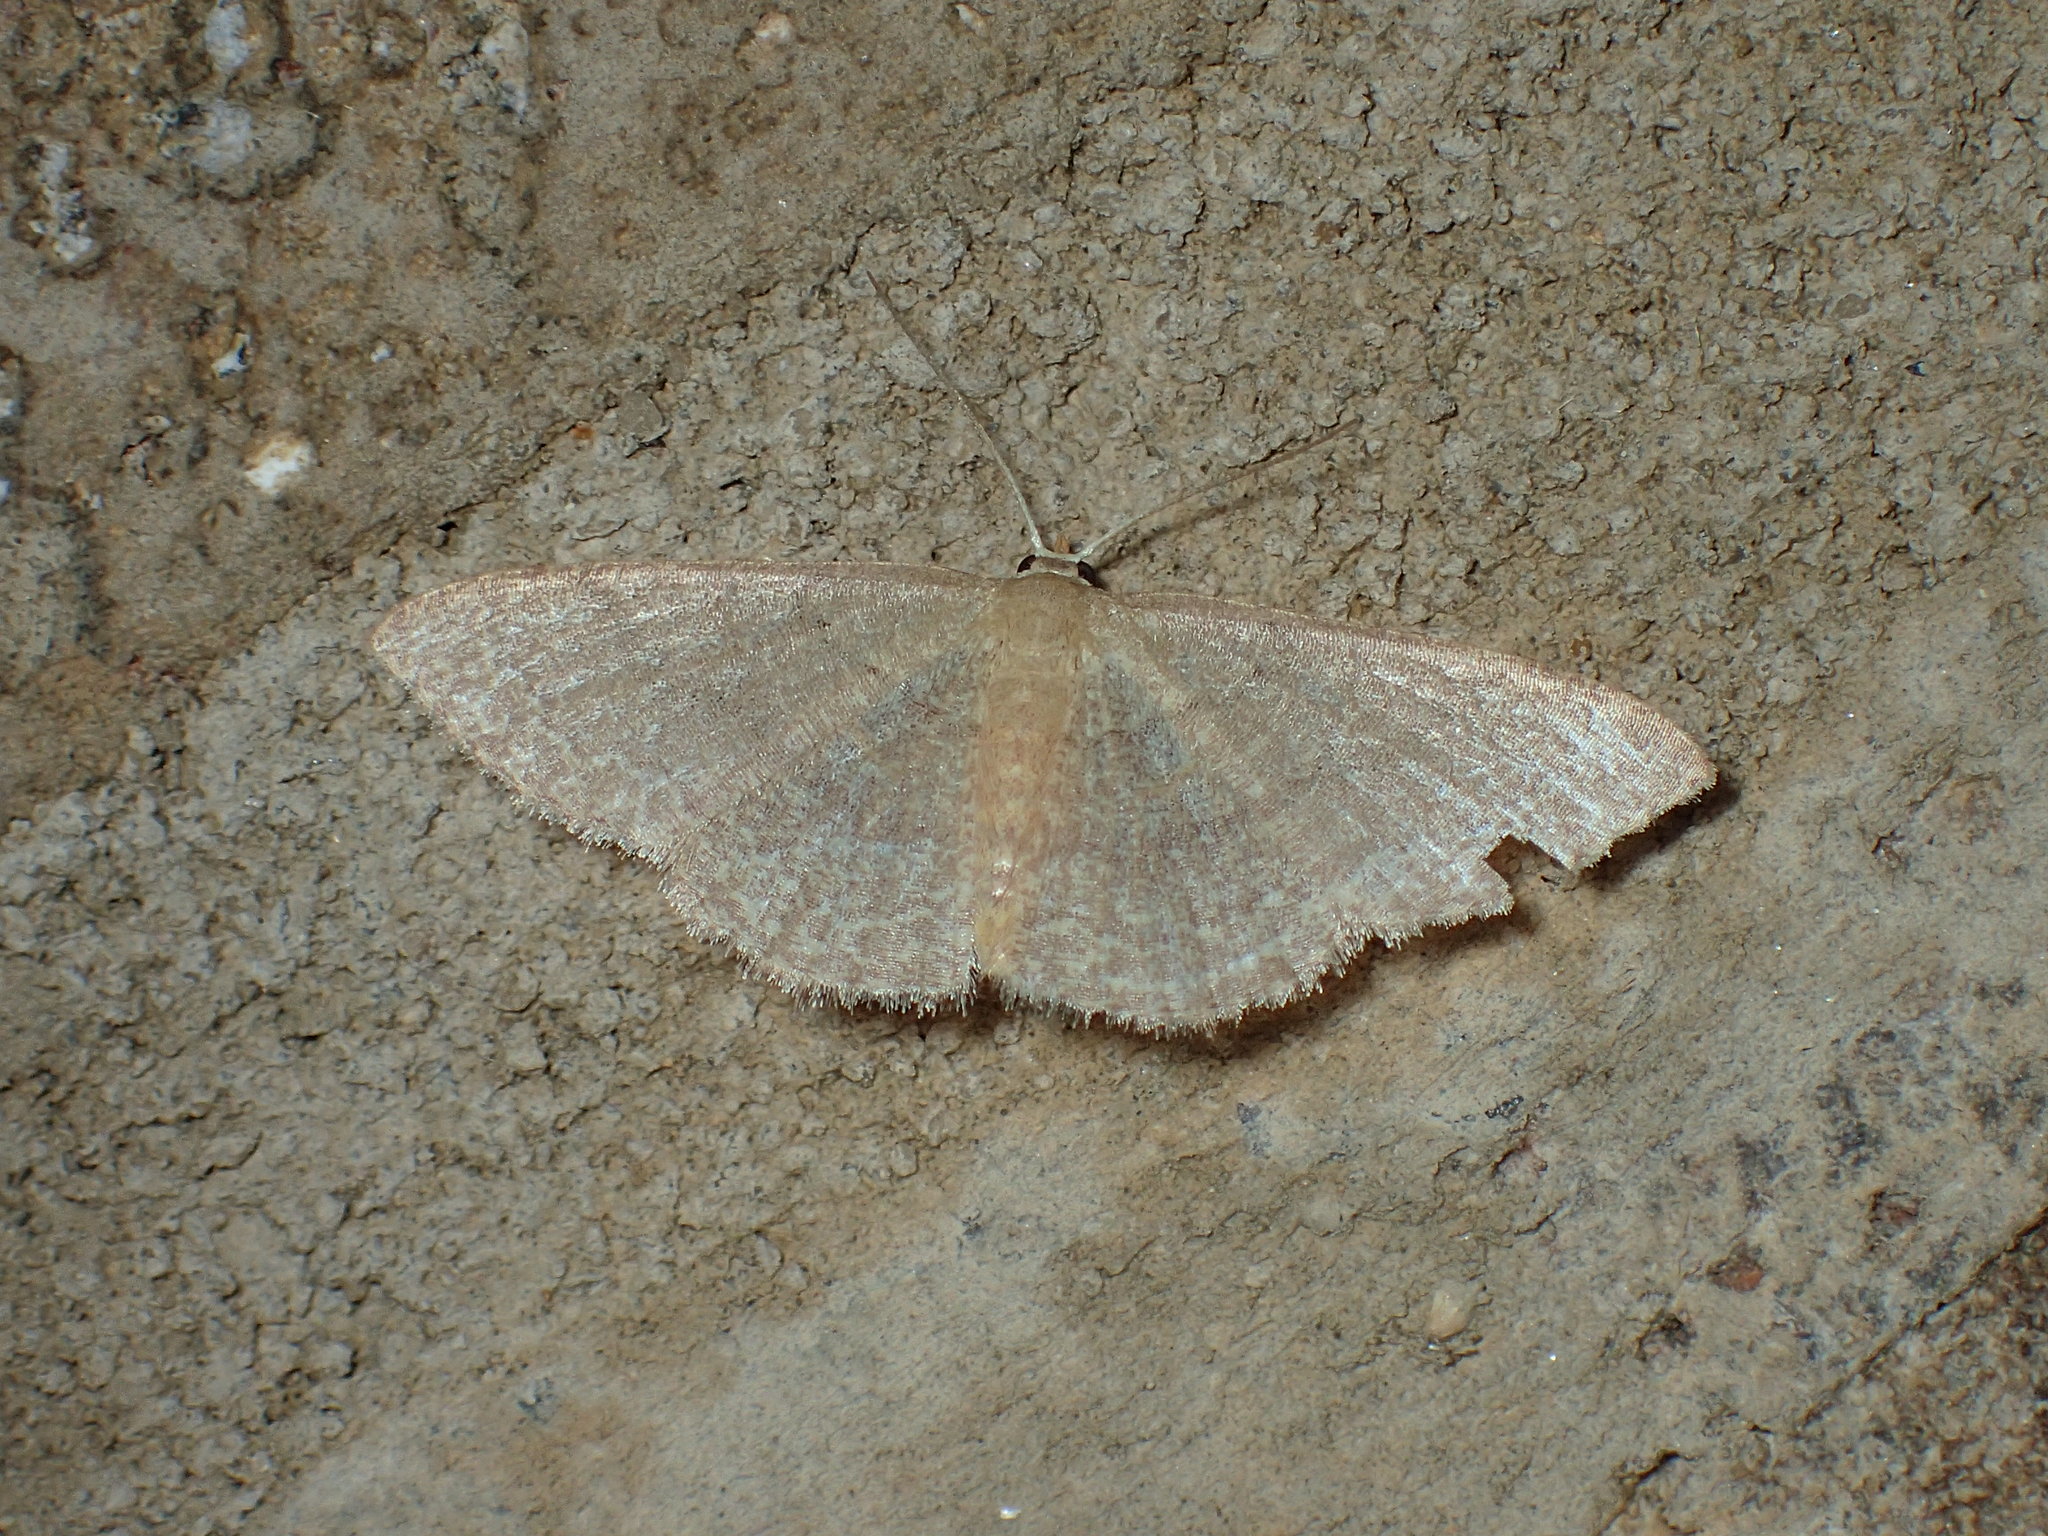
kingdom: Animalia
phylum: Arthropoda
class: Insecta
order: Lepidoptera
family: Geometridae
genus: Pleuroprucha
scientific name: Pleuroprucha insulsaria
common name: Common tan wave
